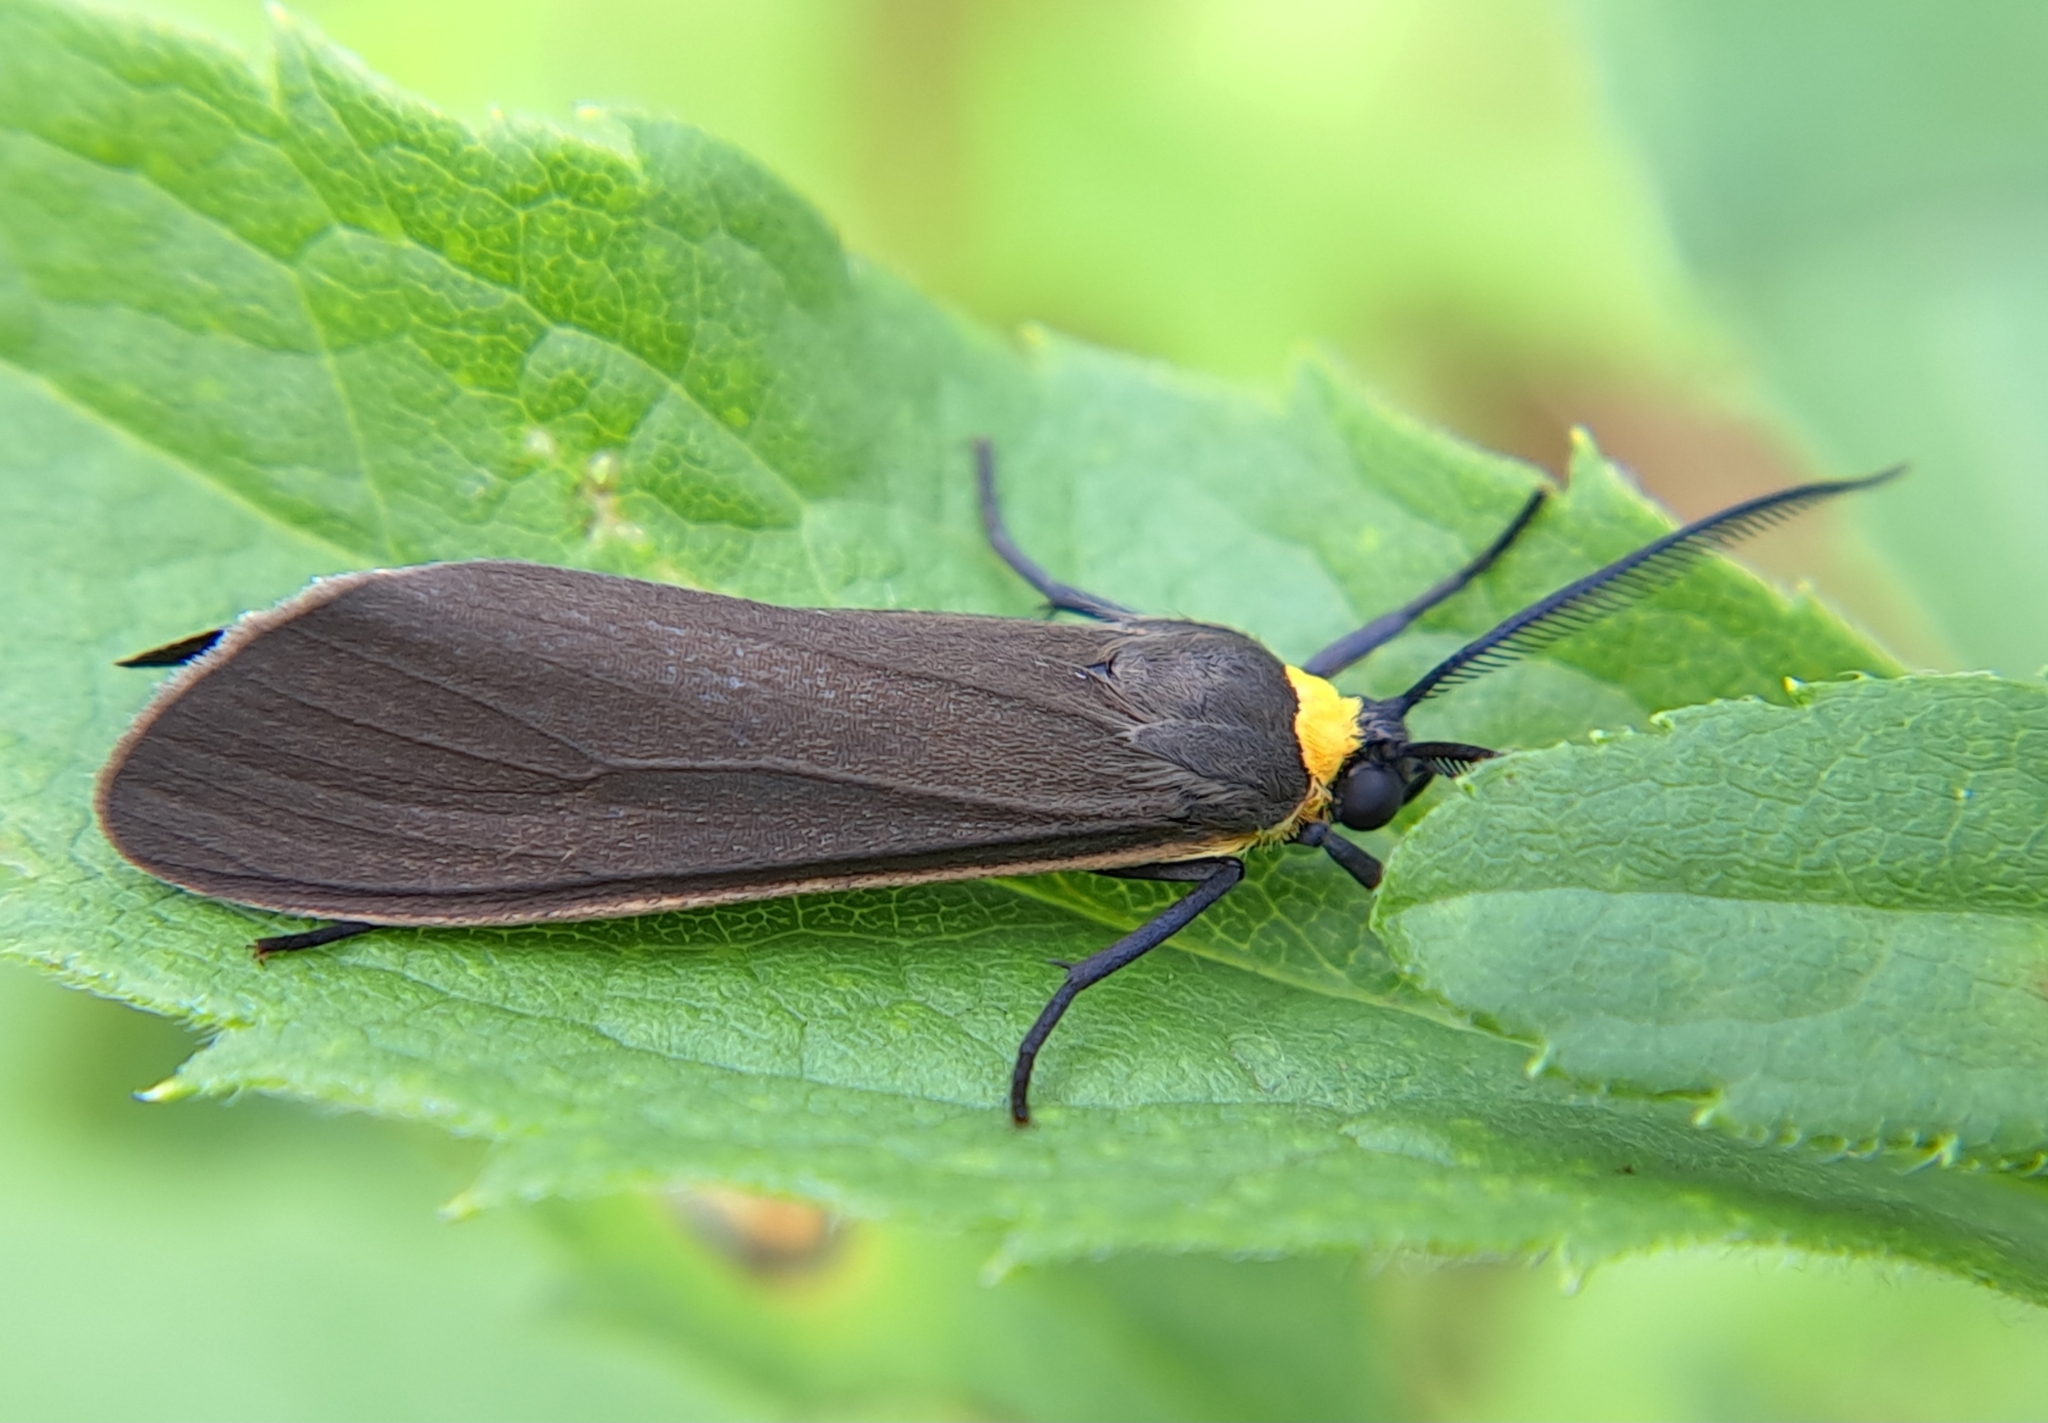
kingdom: Animalia
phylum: Arthropoda
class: Insecta
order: Lepidoptera
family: Erebidae
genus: Cisseps
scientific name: Cisseps fulvicollis
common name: Yellow-collared scape moth
